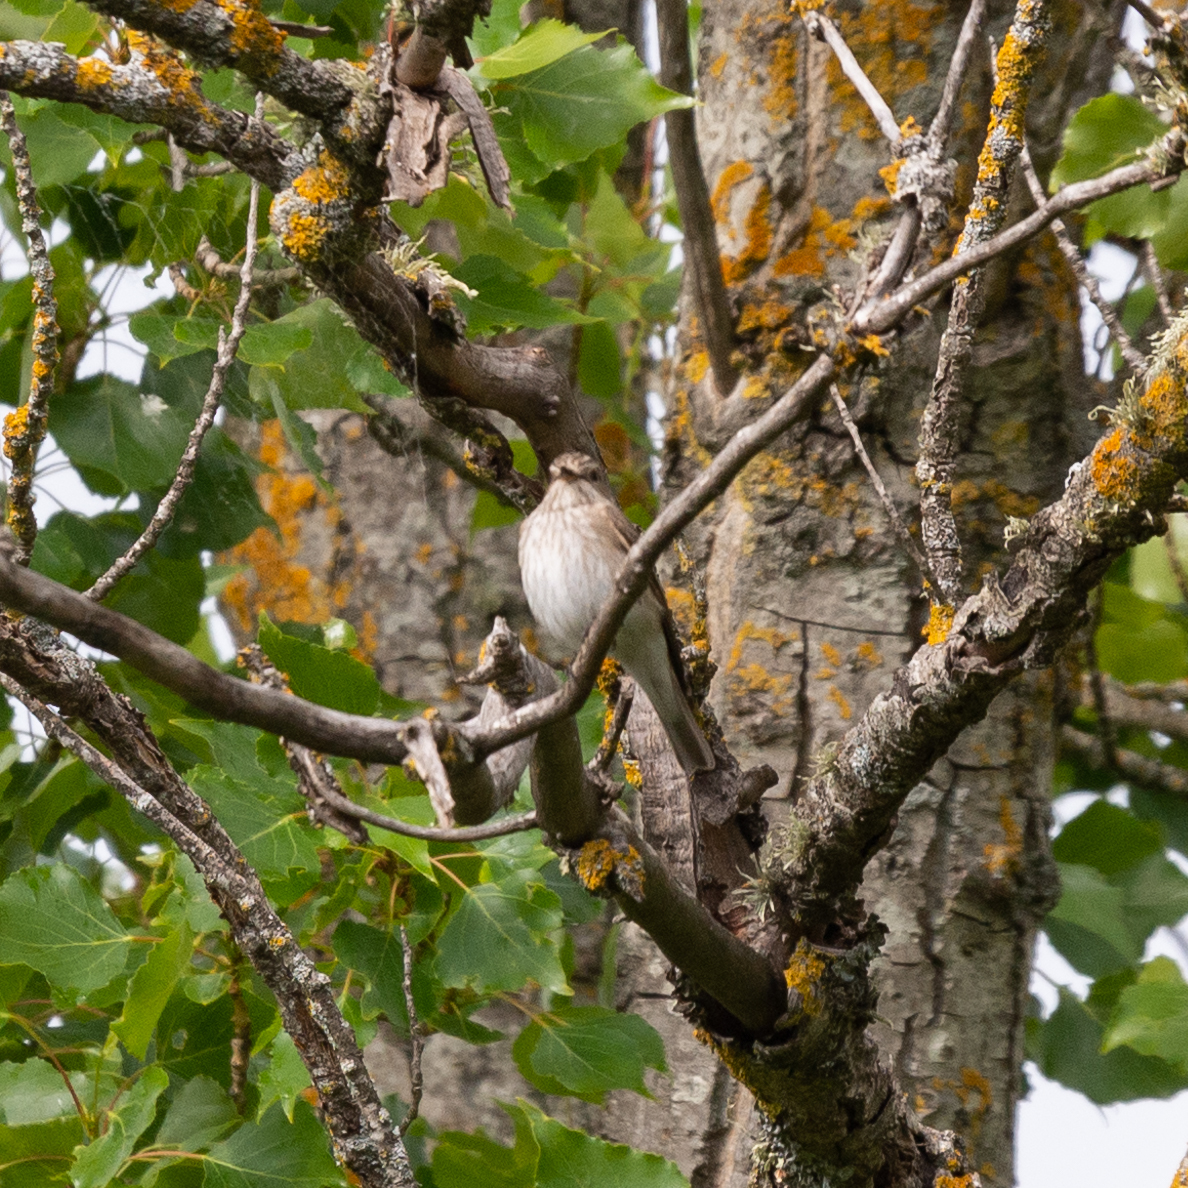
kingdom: Animalia
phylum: Chordata
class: Aves
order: Passeriformes
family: Muscicapidae
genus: Muscicapa
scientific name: Muscicapa striata
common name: Spotted flycatcher
